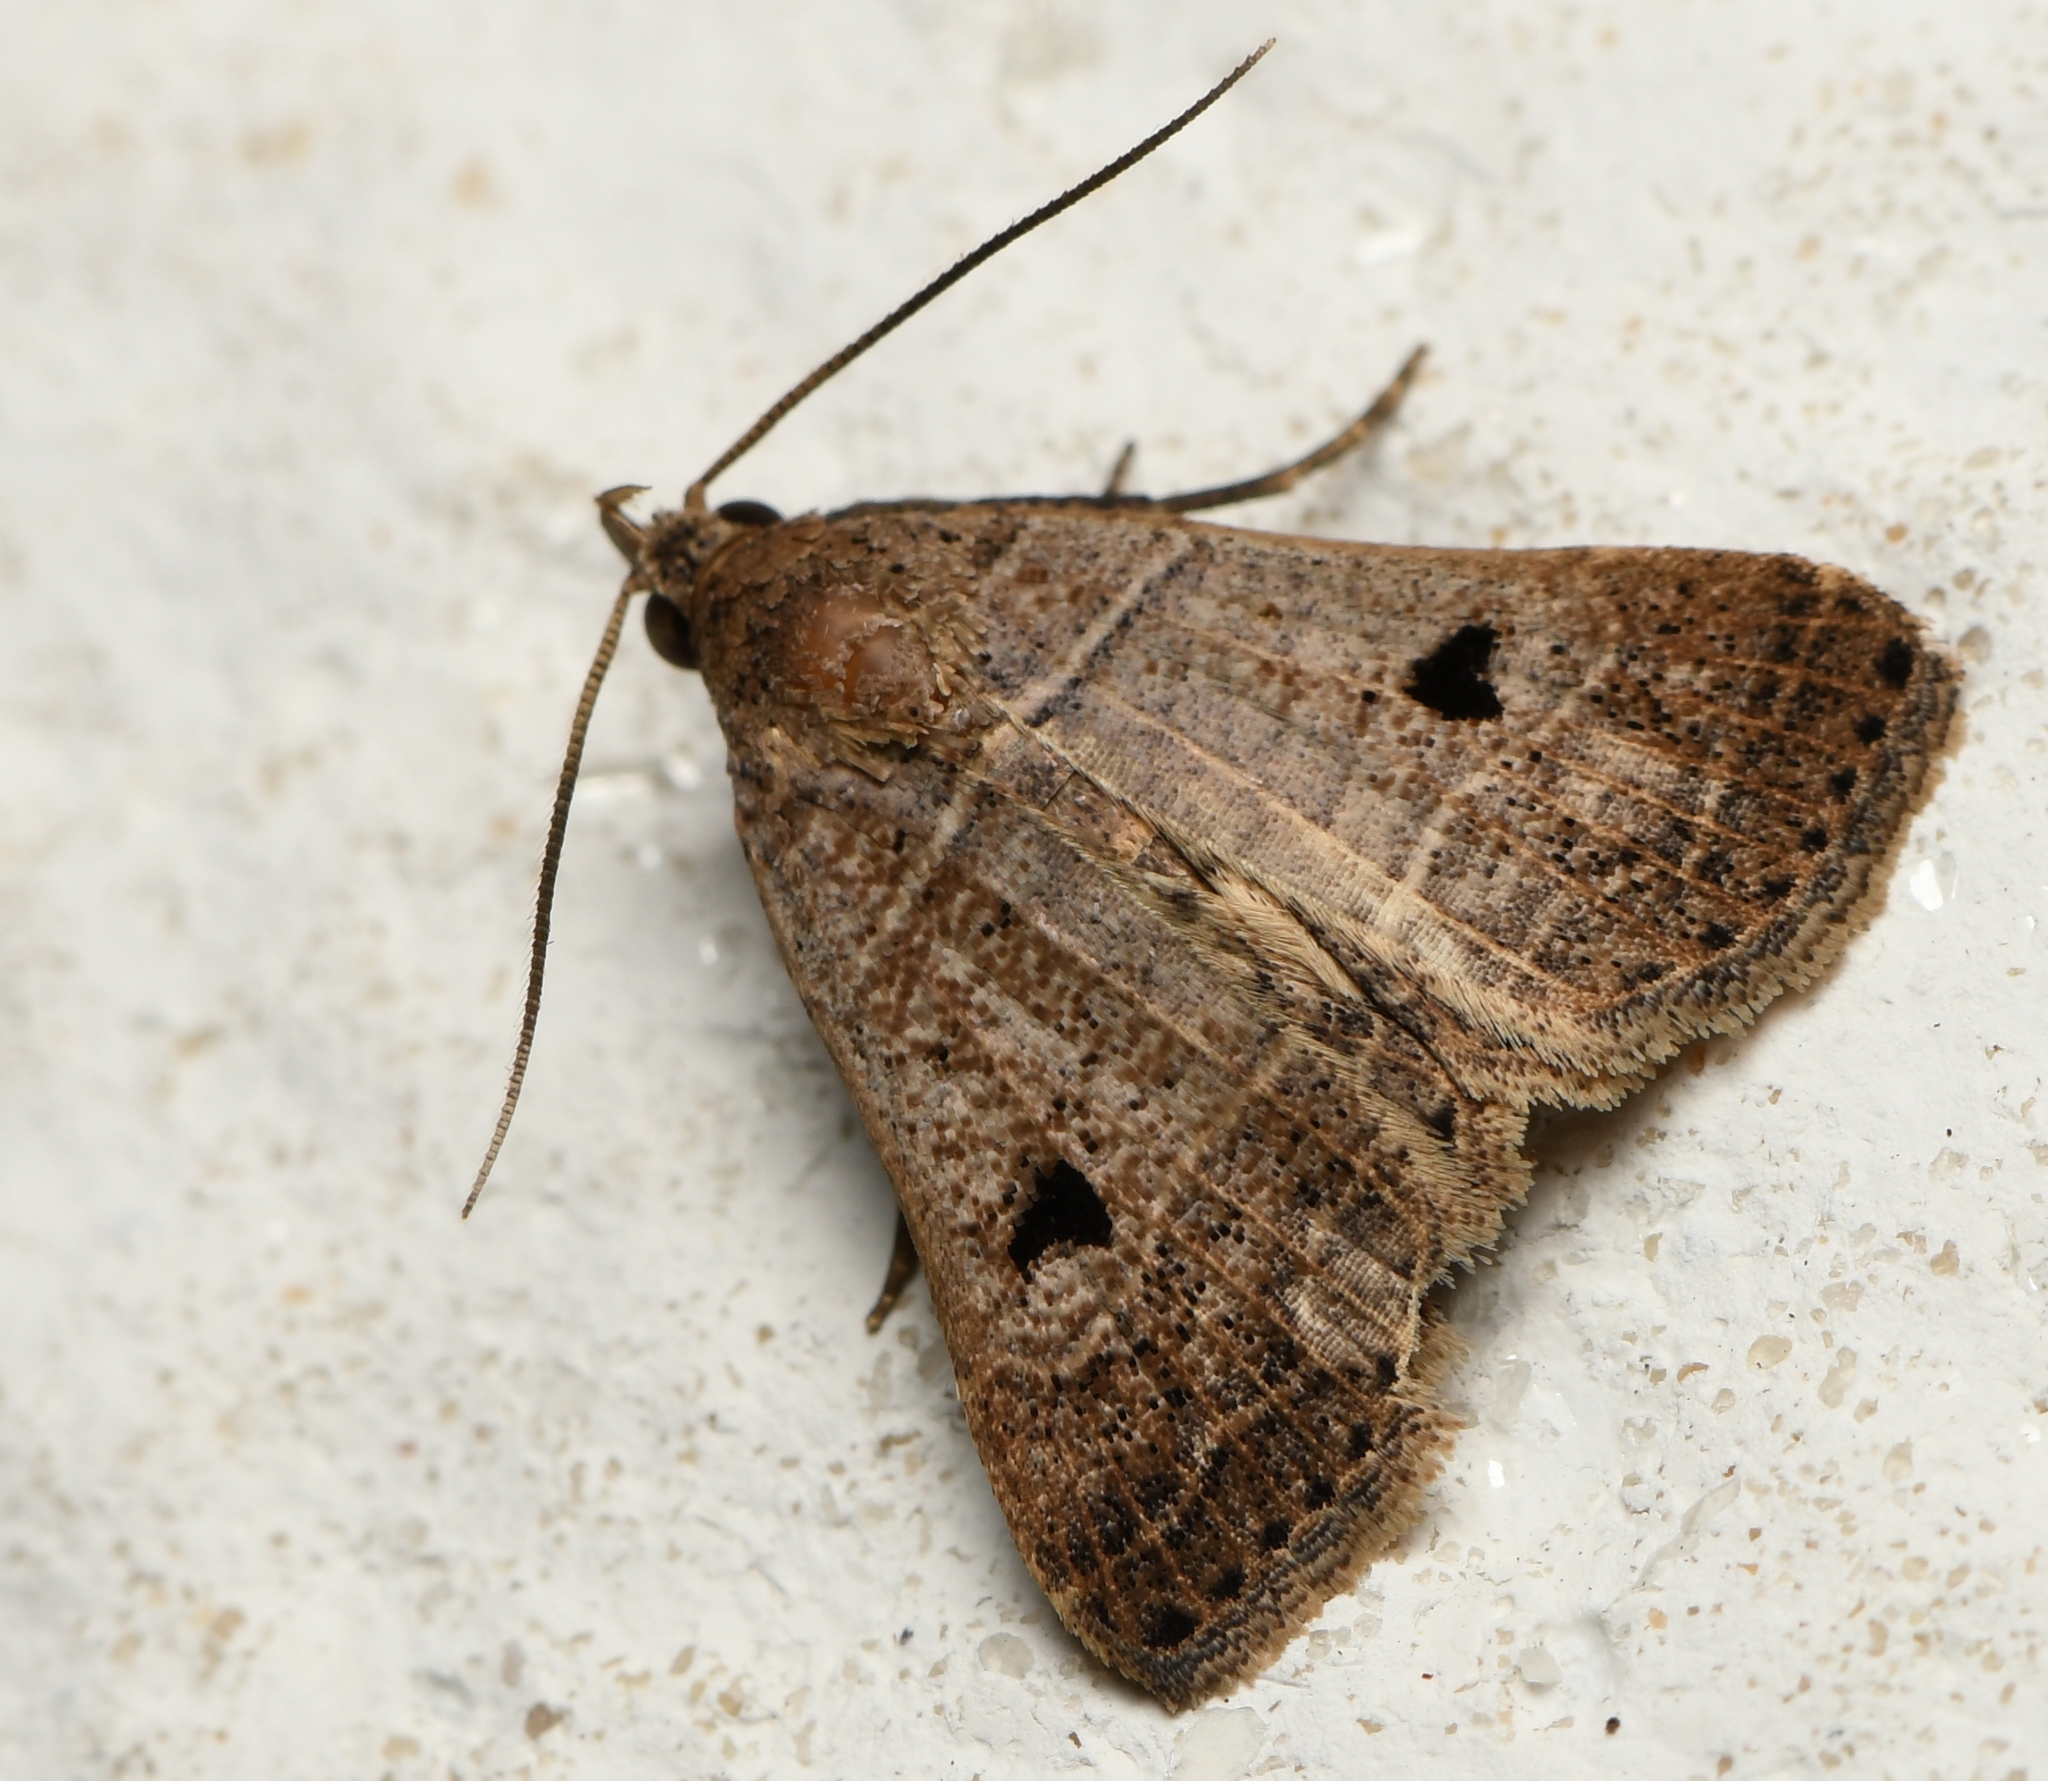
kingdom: Animalia
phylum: Arthropoda
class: Insecta
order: Lepidoptera
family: Erebidae
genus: Bleptina
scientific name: Bleptina flavivena
